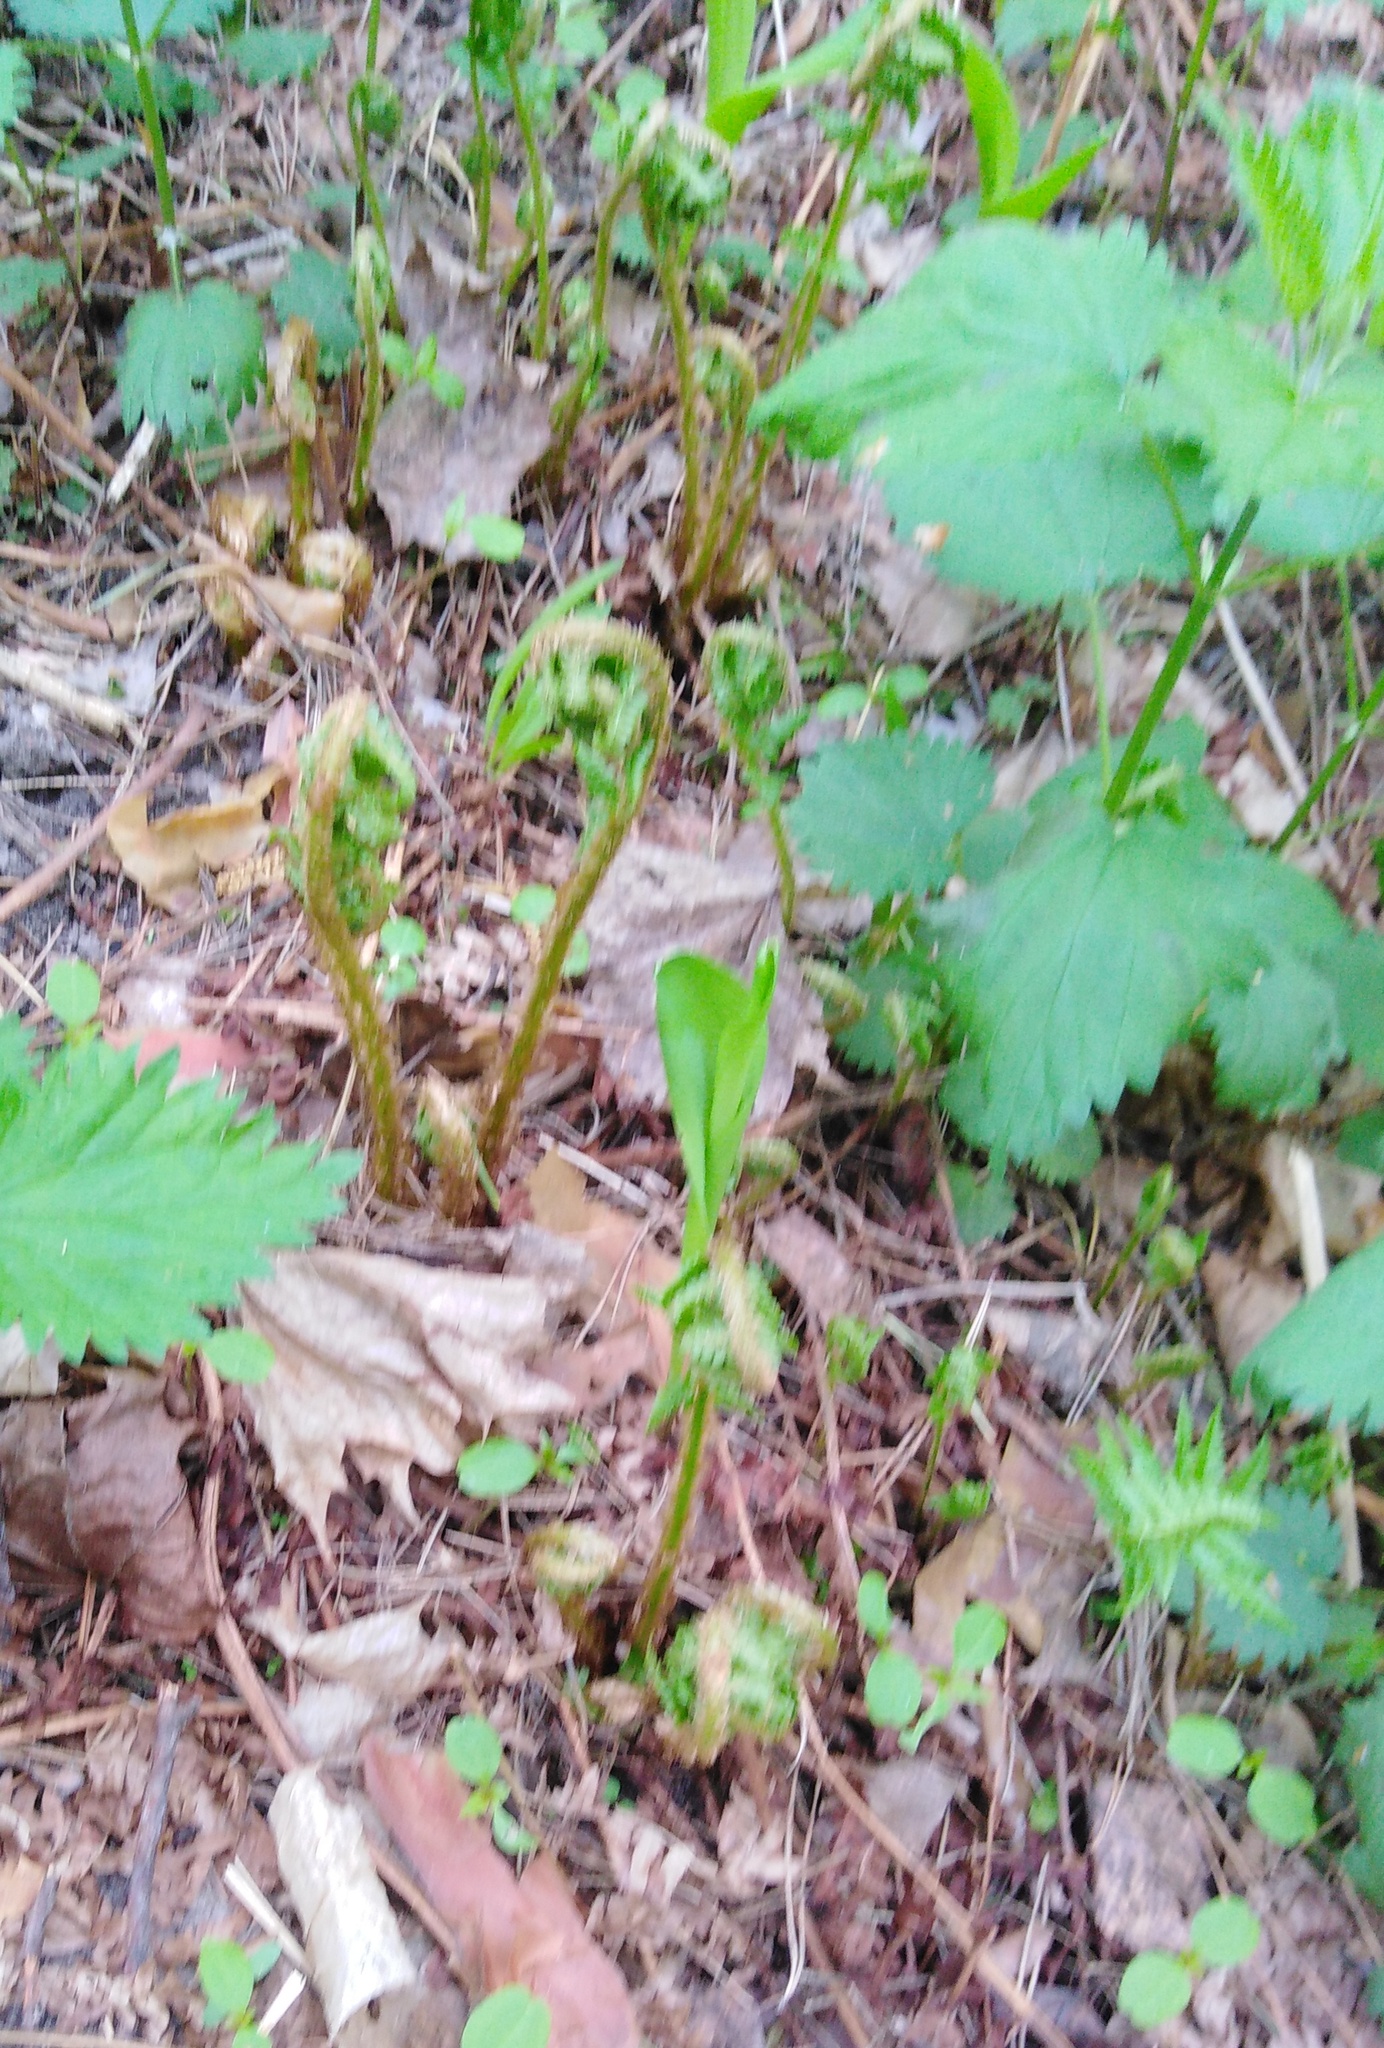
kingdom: Plantae
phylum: Tracheophyta
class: Polypodiopsida
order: Polypodiales
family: Dryopteridaceae
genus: Dryopteris
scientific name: Dryopteris filix-mas
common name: Male fern
